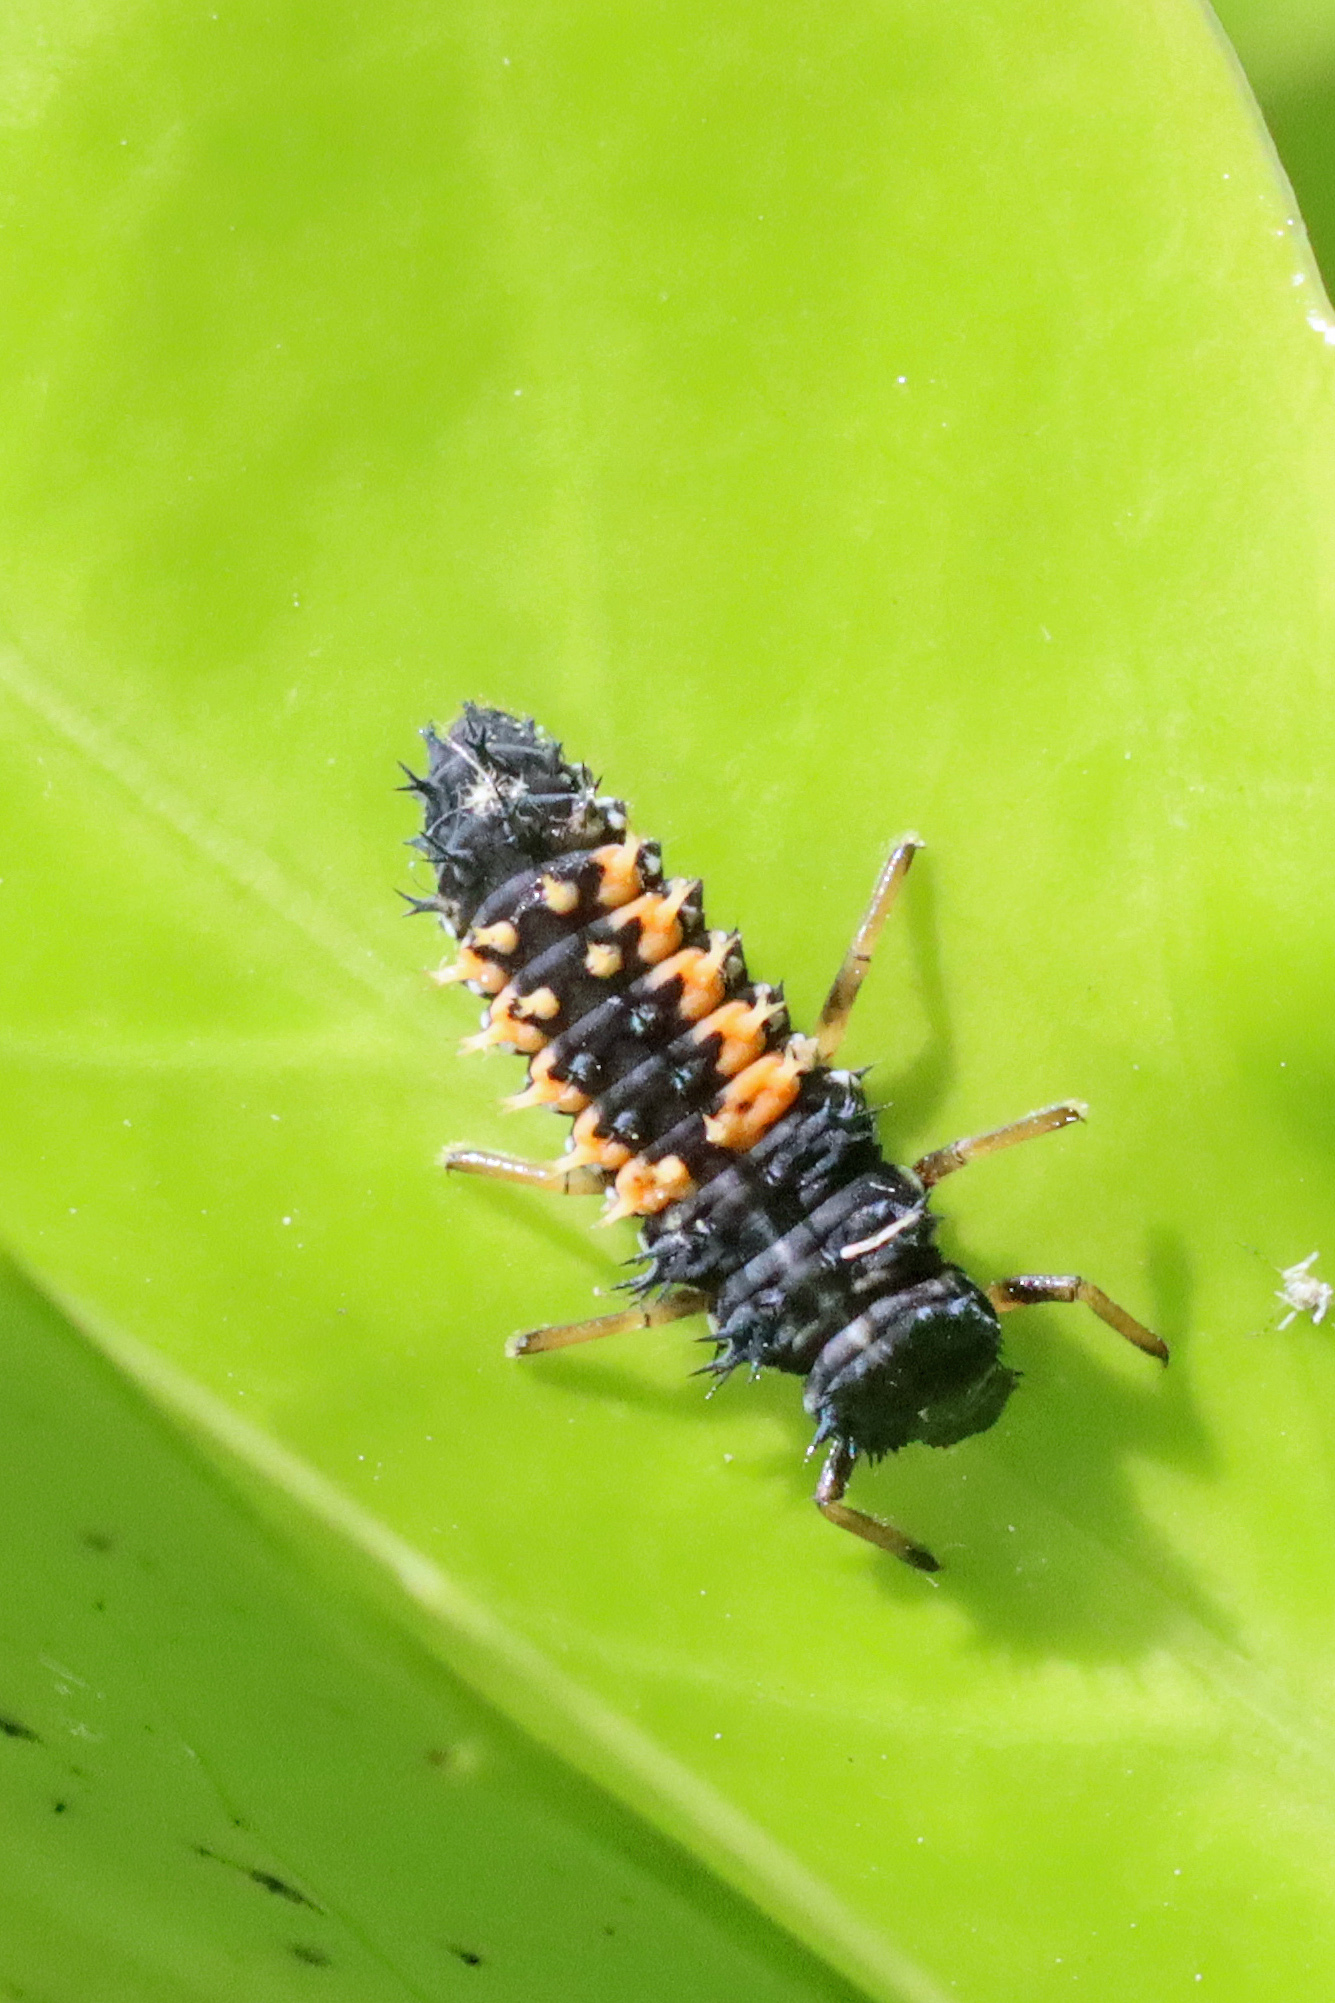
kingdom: Animalia
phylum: Arthropoda
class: Insecta
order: Coleoptera
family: Coccinellidae
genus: Harmonia
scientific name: Harmonia axyridis
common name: Harlequin ladybird
